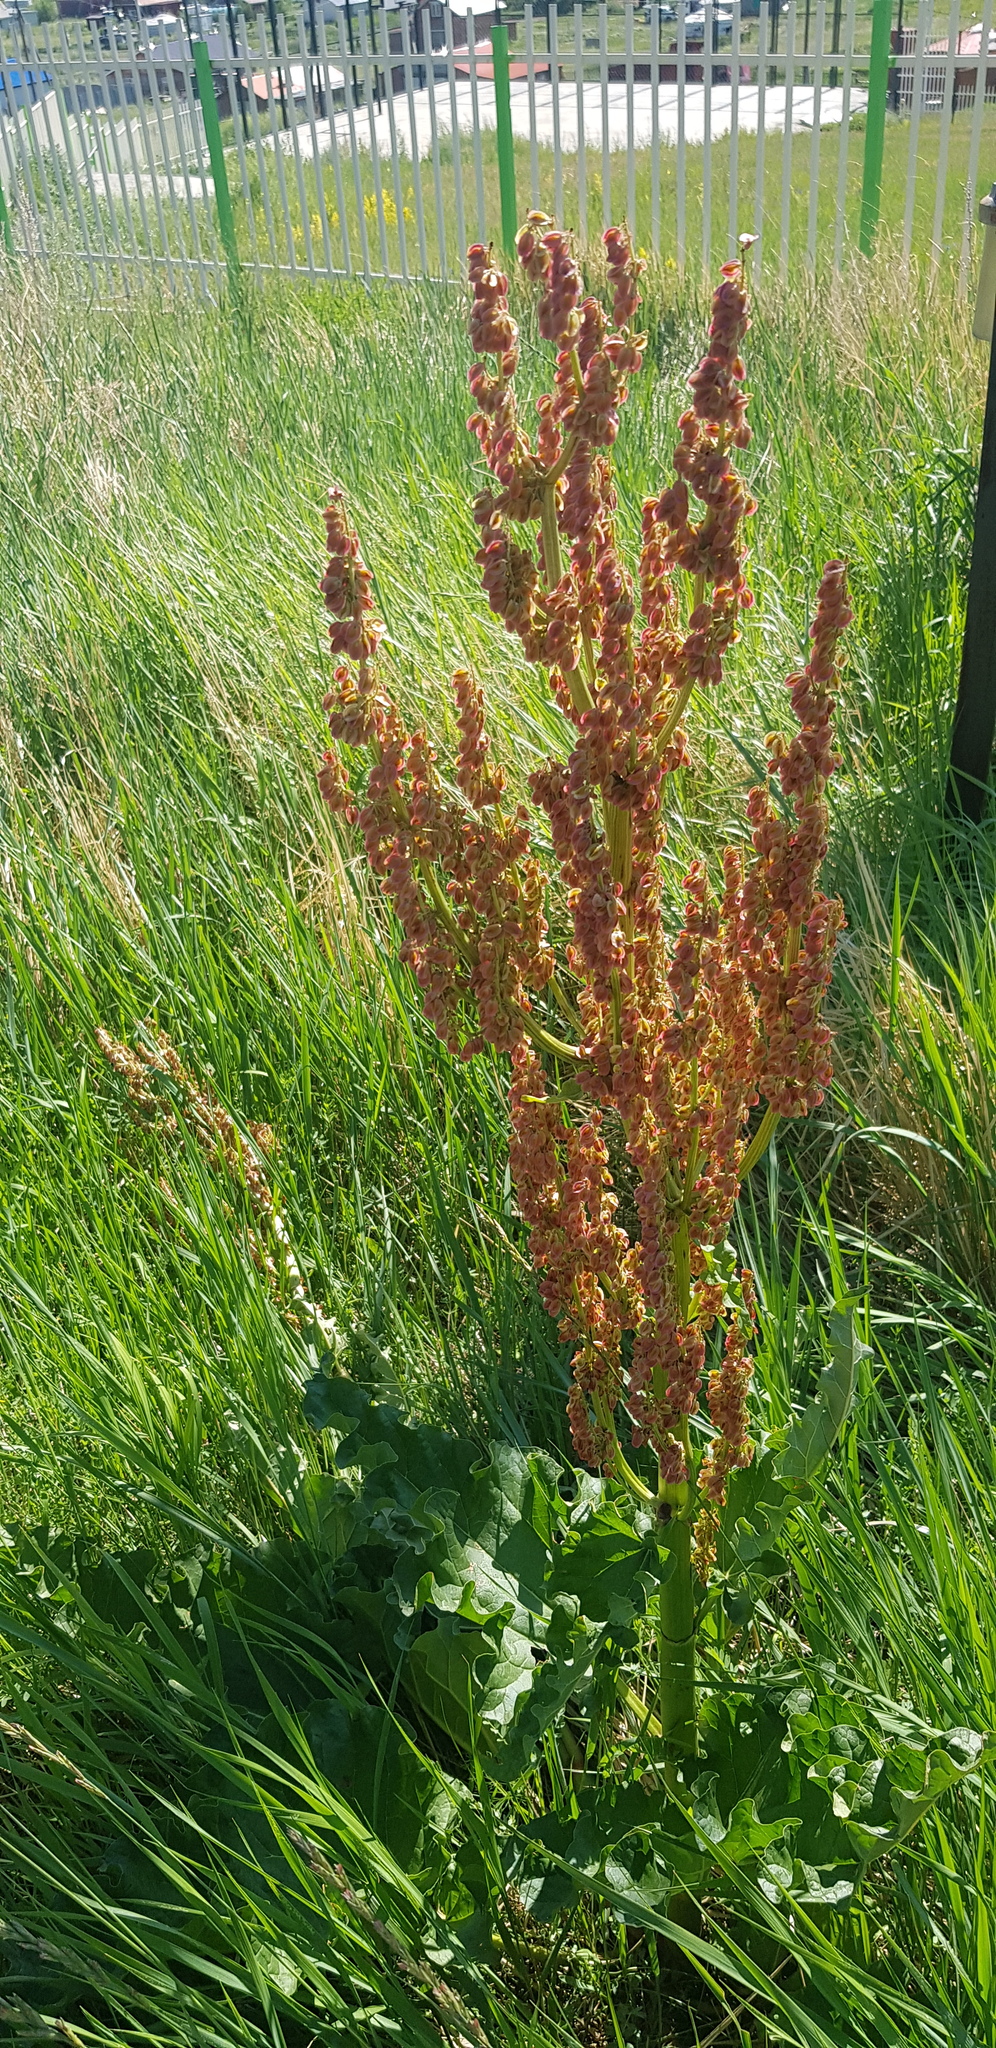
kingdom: Plantae
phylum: Tracheophyta
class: Magnoliopsida
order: Caryophyllales
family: Polygonaceae
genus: Rumex
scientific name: Rumex thyrsiflorus
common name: Garden sorrel
